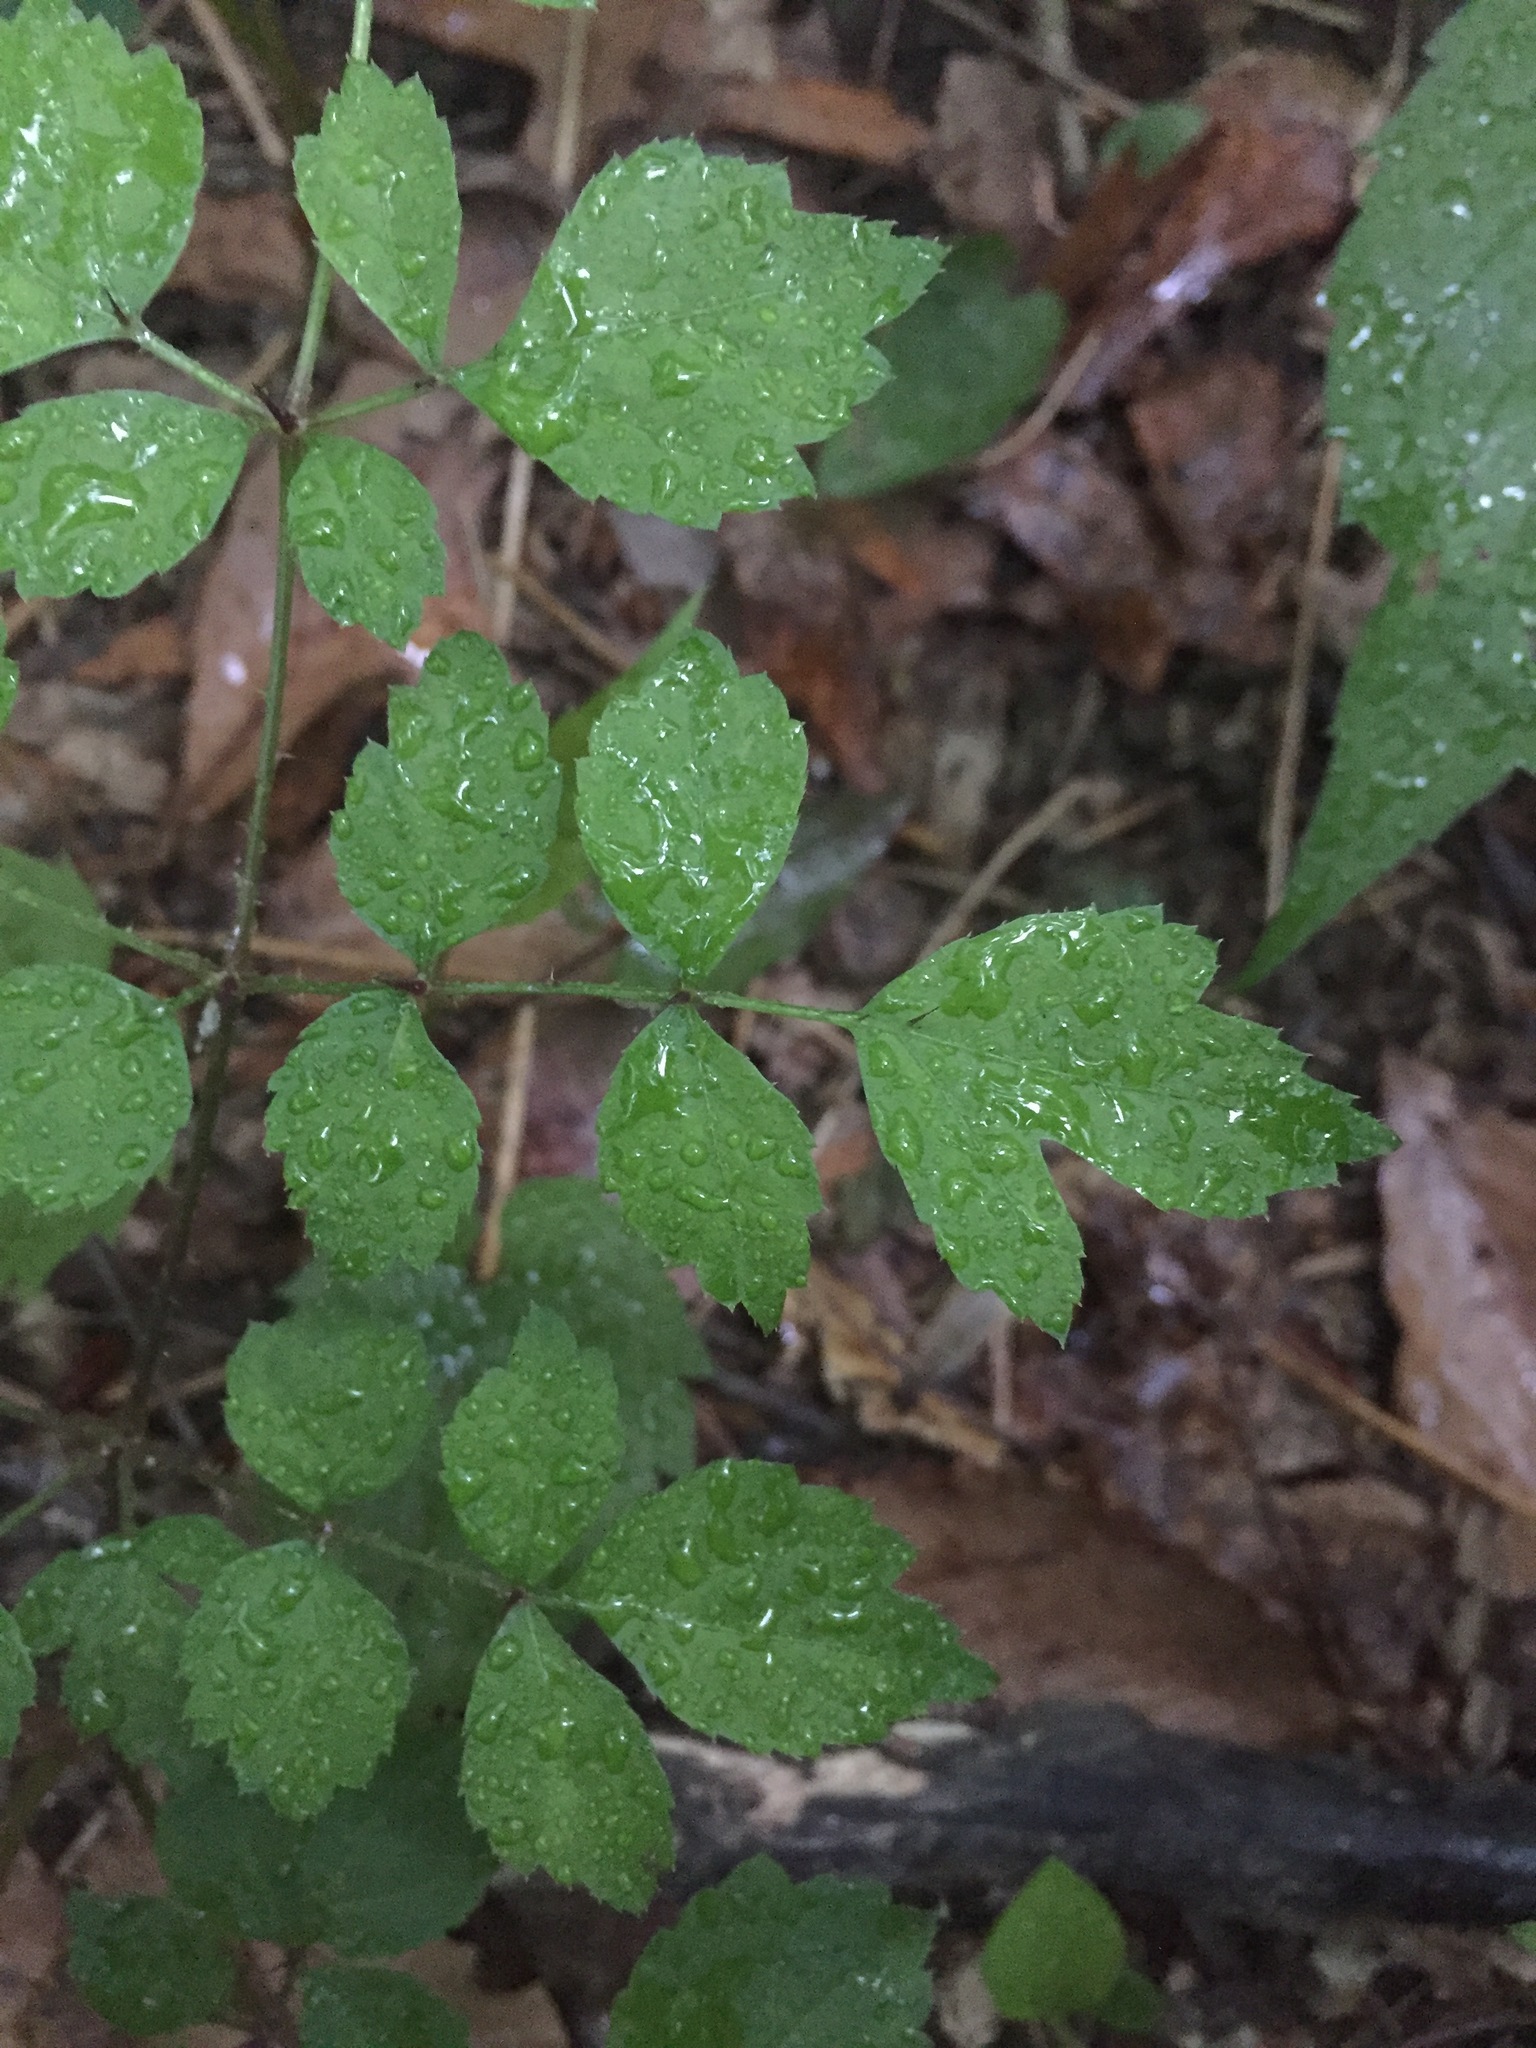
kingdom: Plantae
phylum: Tracheophyta
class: Magnoliopsida
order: Apiales
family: Araliaceae
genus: Aralia
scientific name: Aralia elata
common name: Japanese angelica-tree
